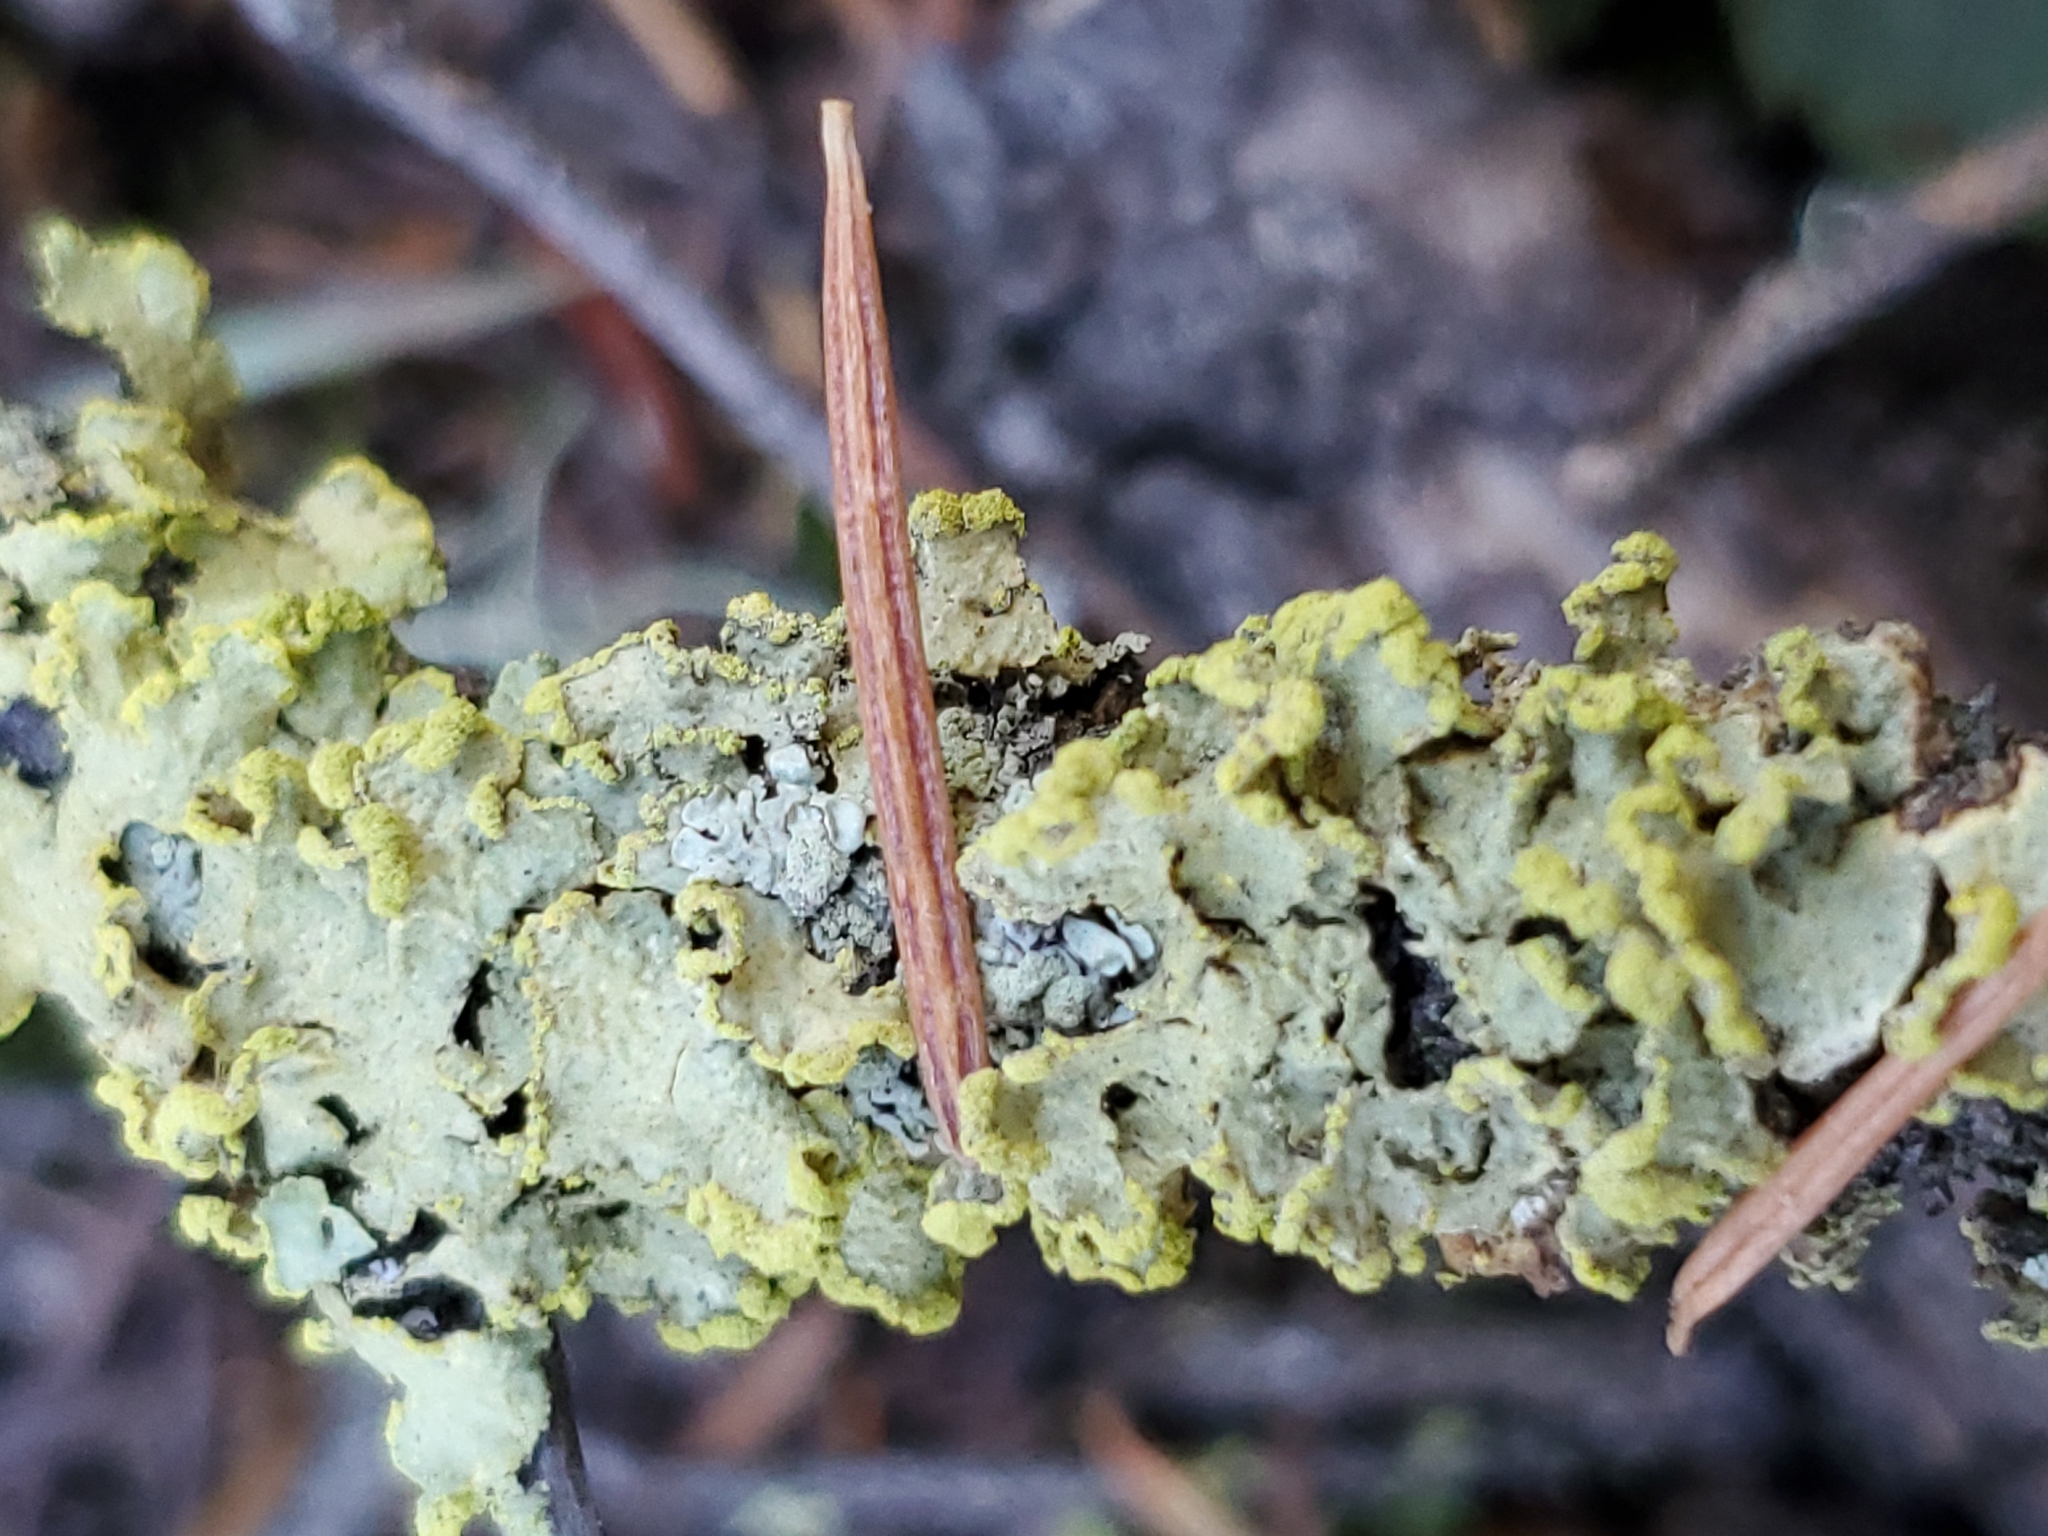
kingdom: Fungi
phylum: Ascomycota
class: Lecanoromycetes
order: Lecanorales
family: Parmeliaceae
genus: Vulpicida
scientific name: Vulpicida pinastri
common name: Powdered sunshine lichen
